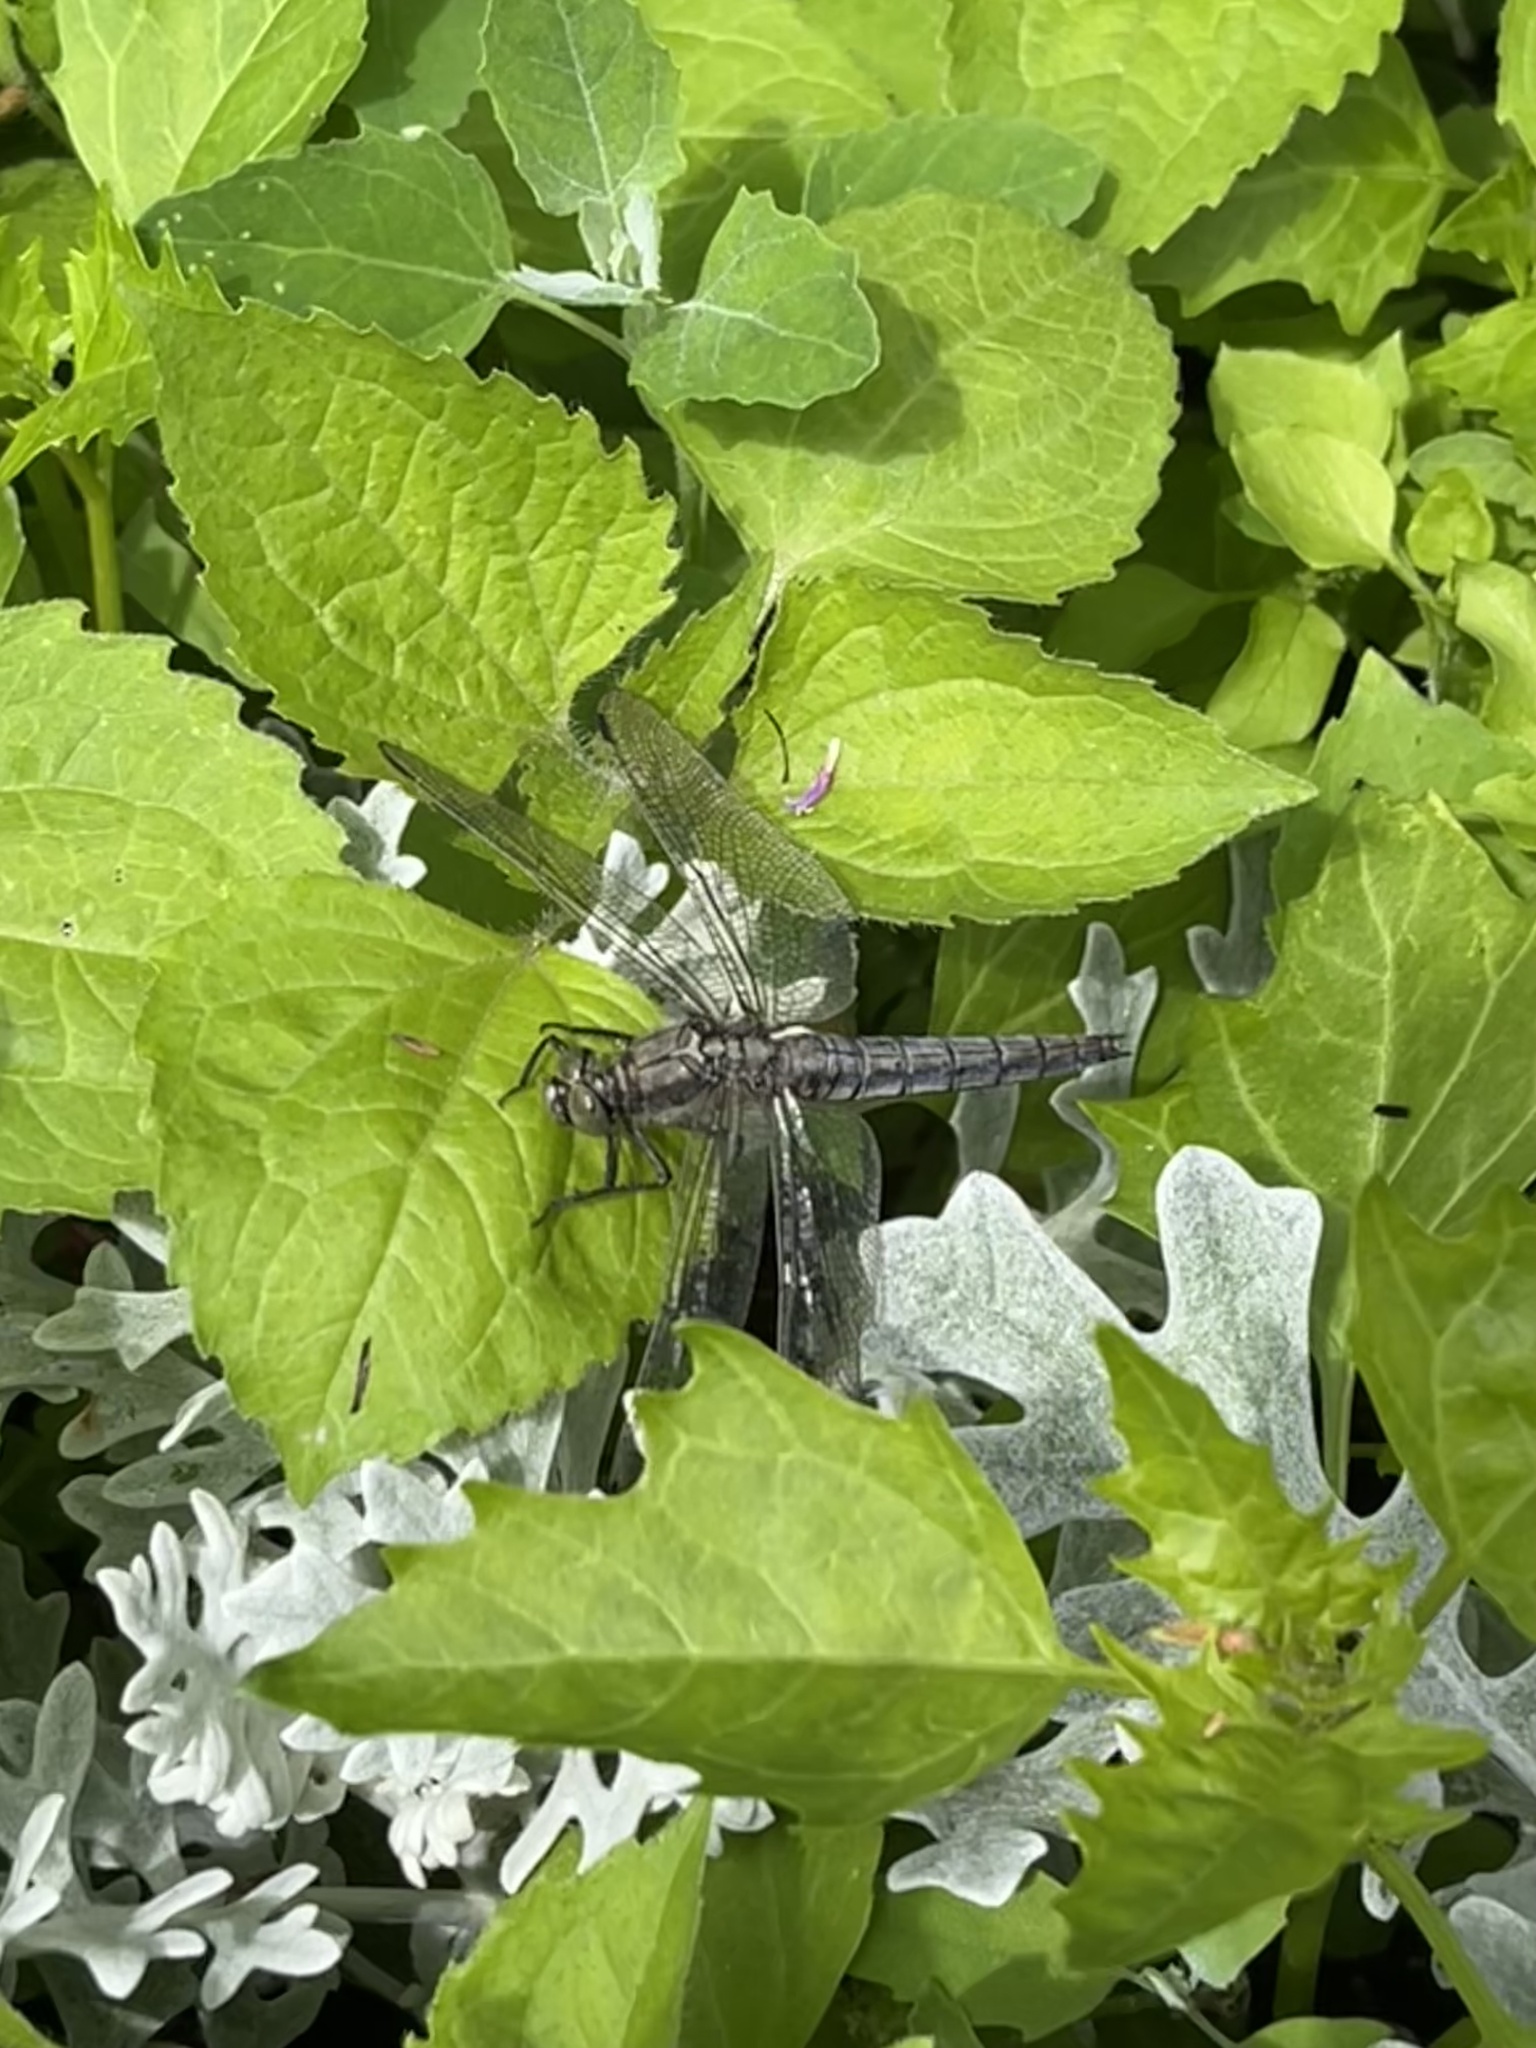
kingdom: Animalia
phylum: Arthropoda
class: Insecta
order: Odonata
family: Libellulidae
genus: Orthetrum
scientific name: Orthetrum cancellatum
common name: Black-tailed skimmer
